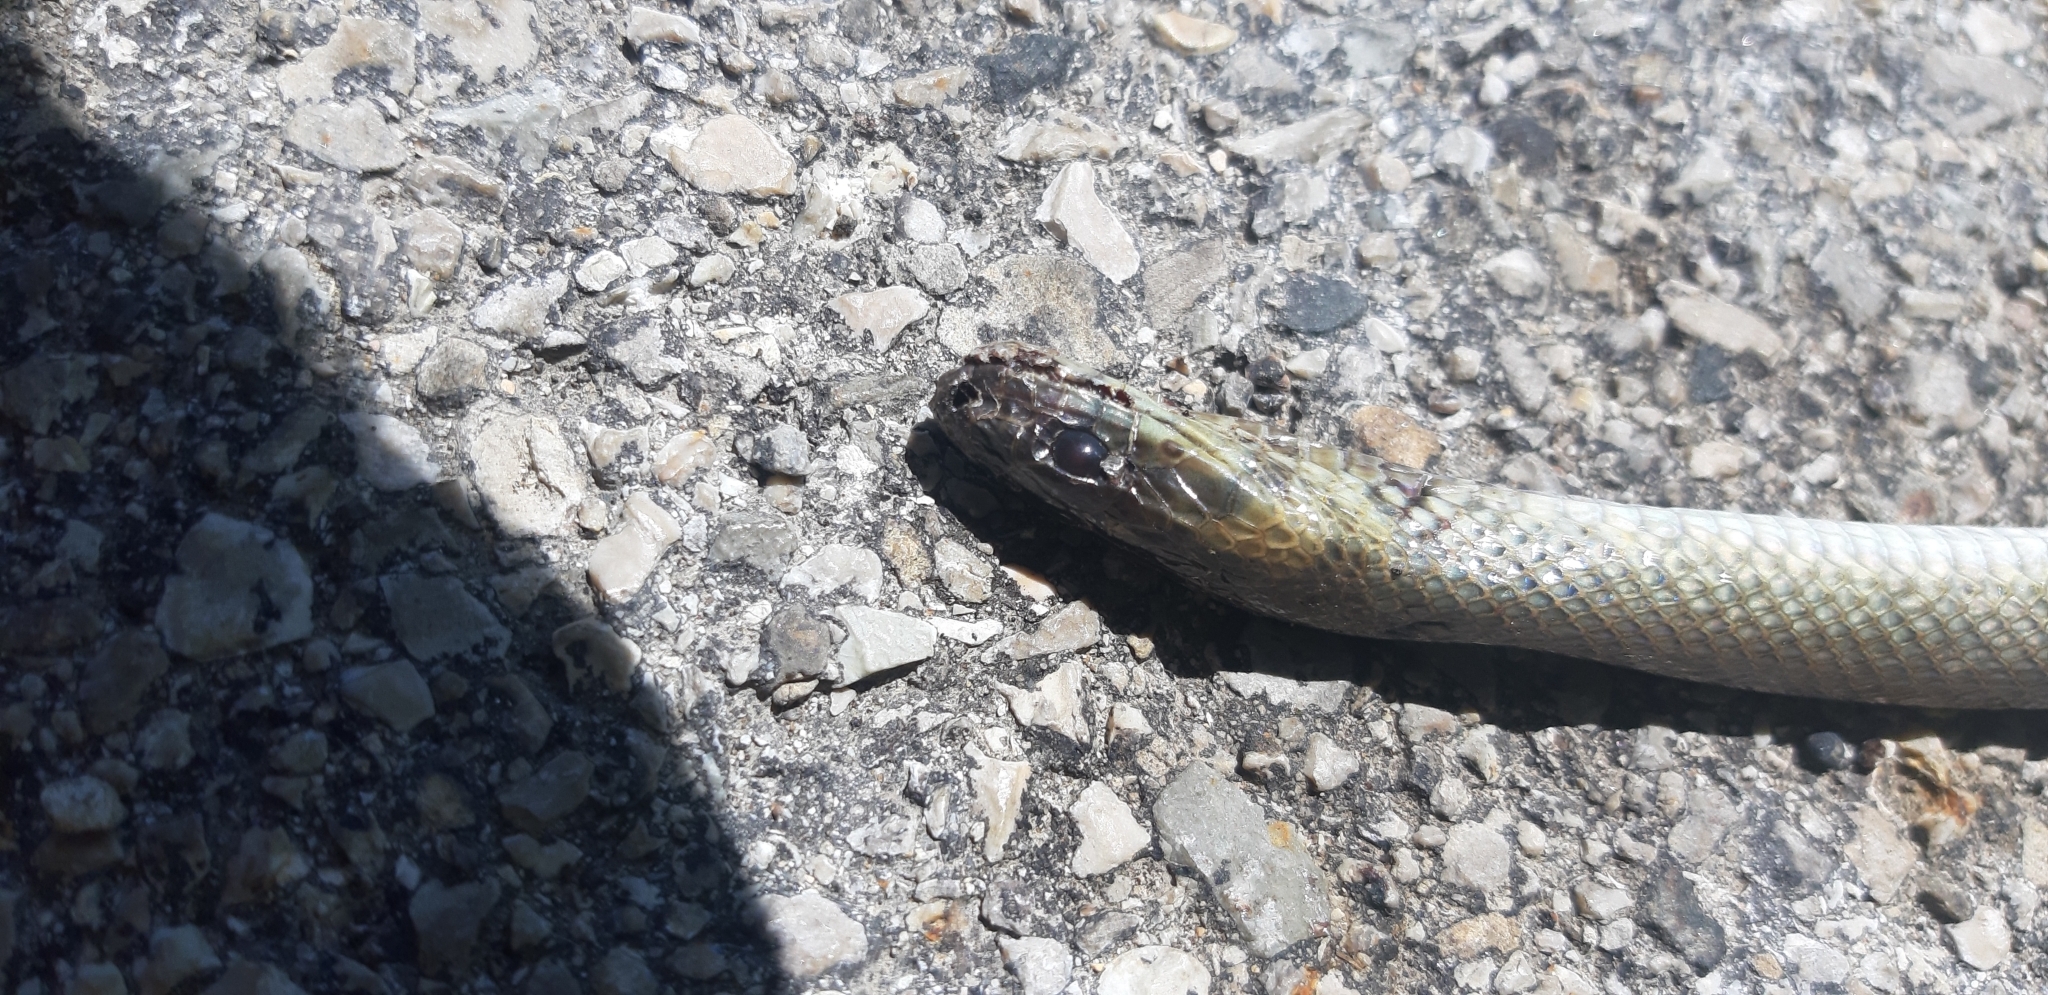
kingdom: Animalia
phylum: Chordata
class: Squamata
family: Colubridae
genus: Zamenis
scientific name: Zamenis longissimus
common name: Aesculapean snake
